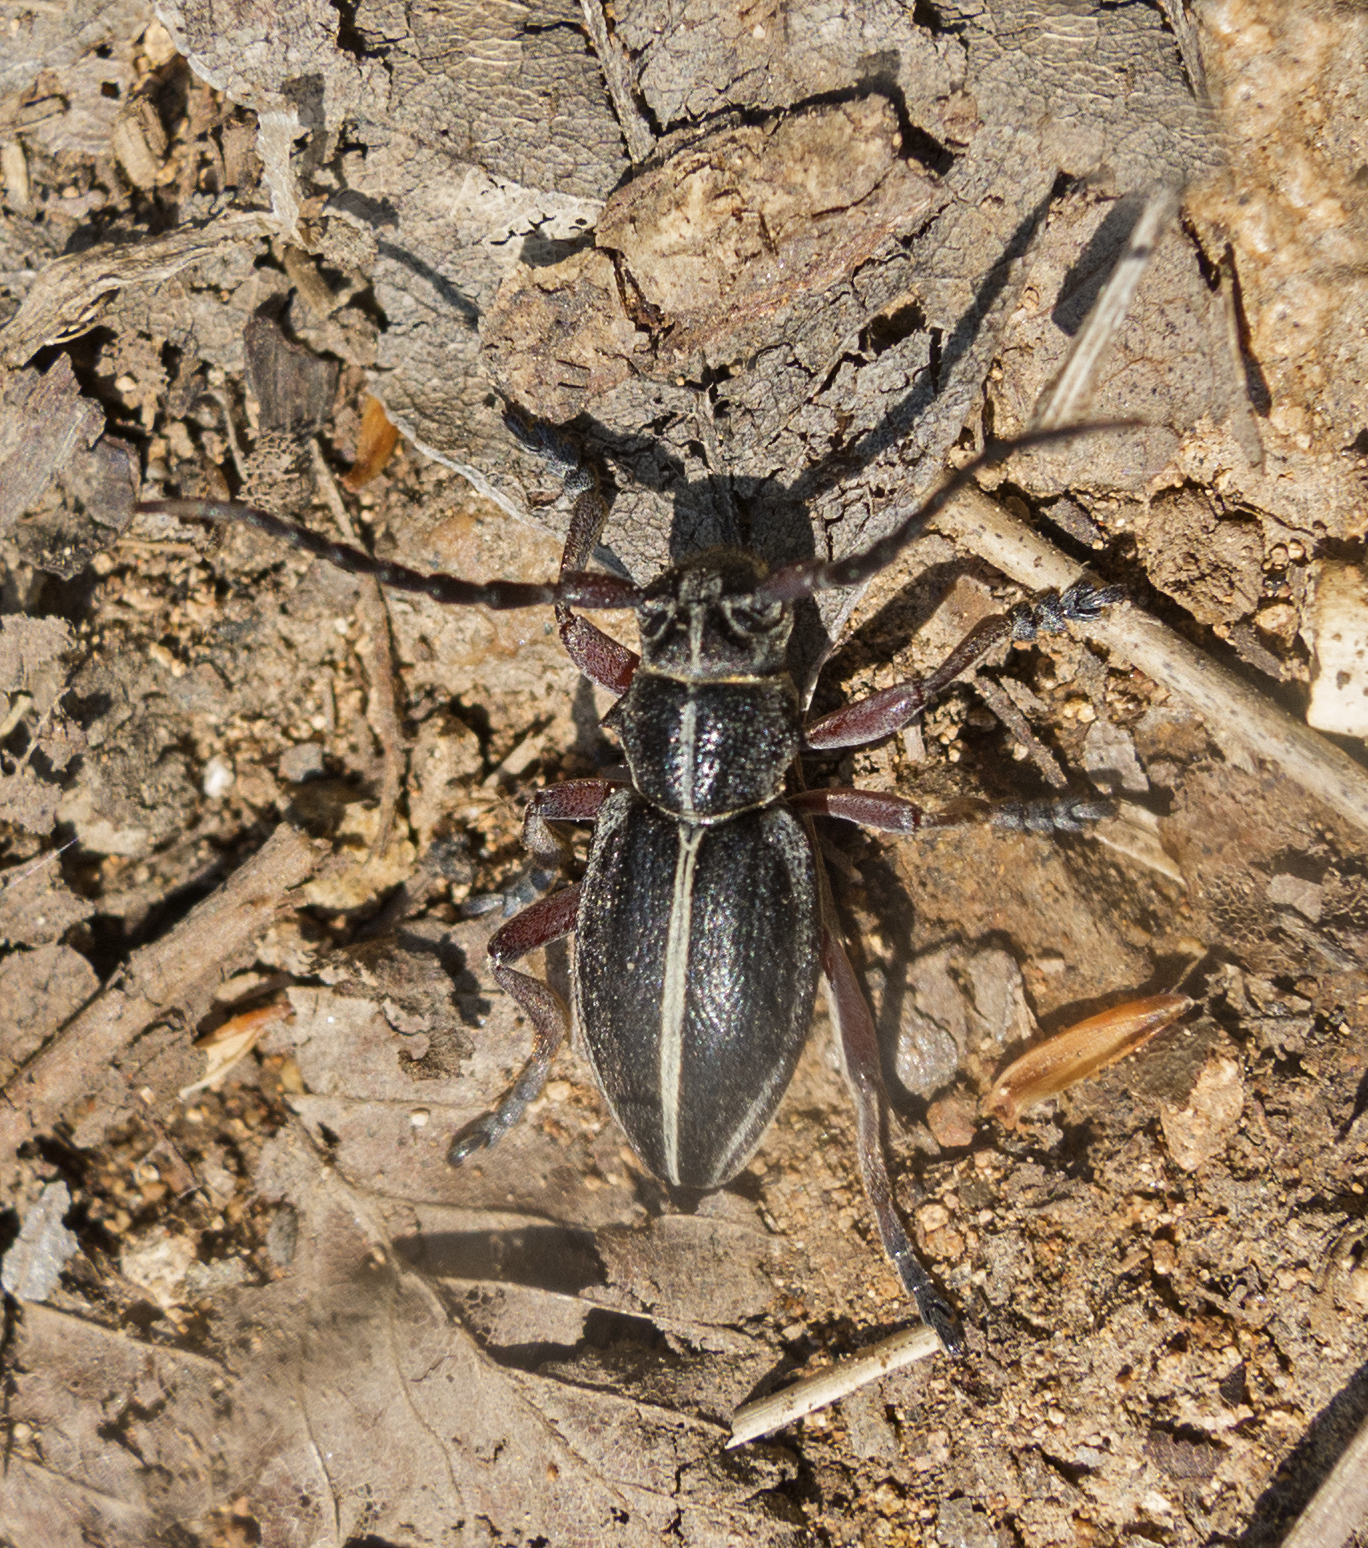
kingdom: Animalia
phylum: Arthropoda
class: Insecta
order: Coleoptera
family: Cerambycidae
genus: Dorcadion
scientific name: Dorcadion pedestre
